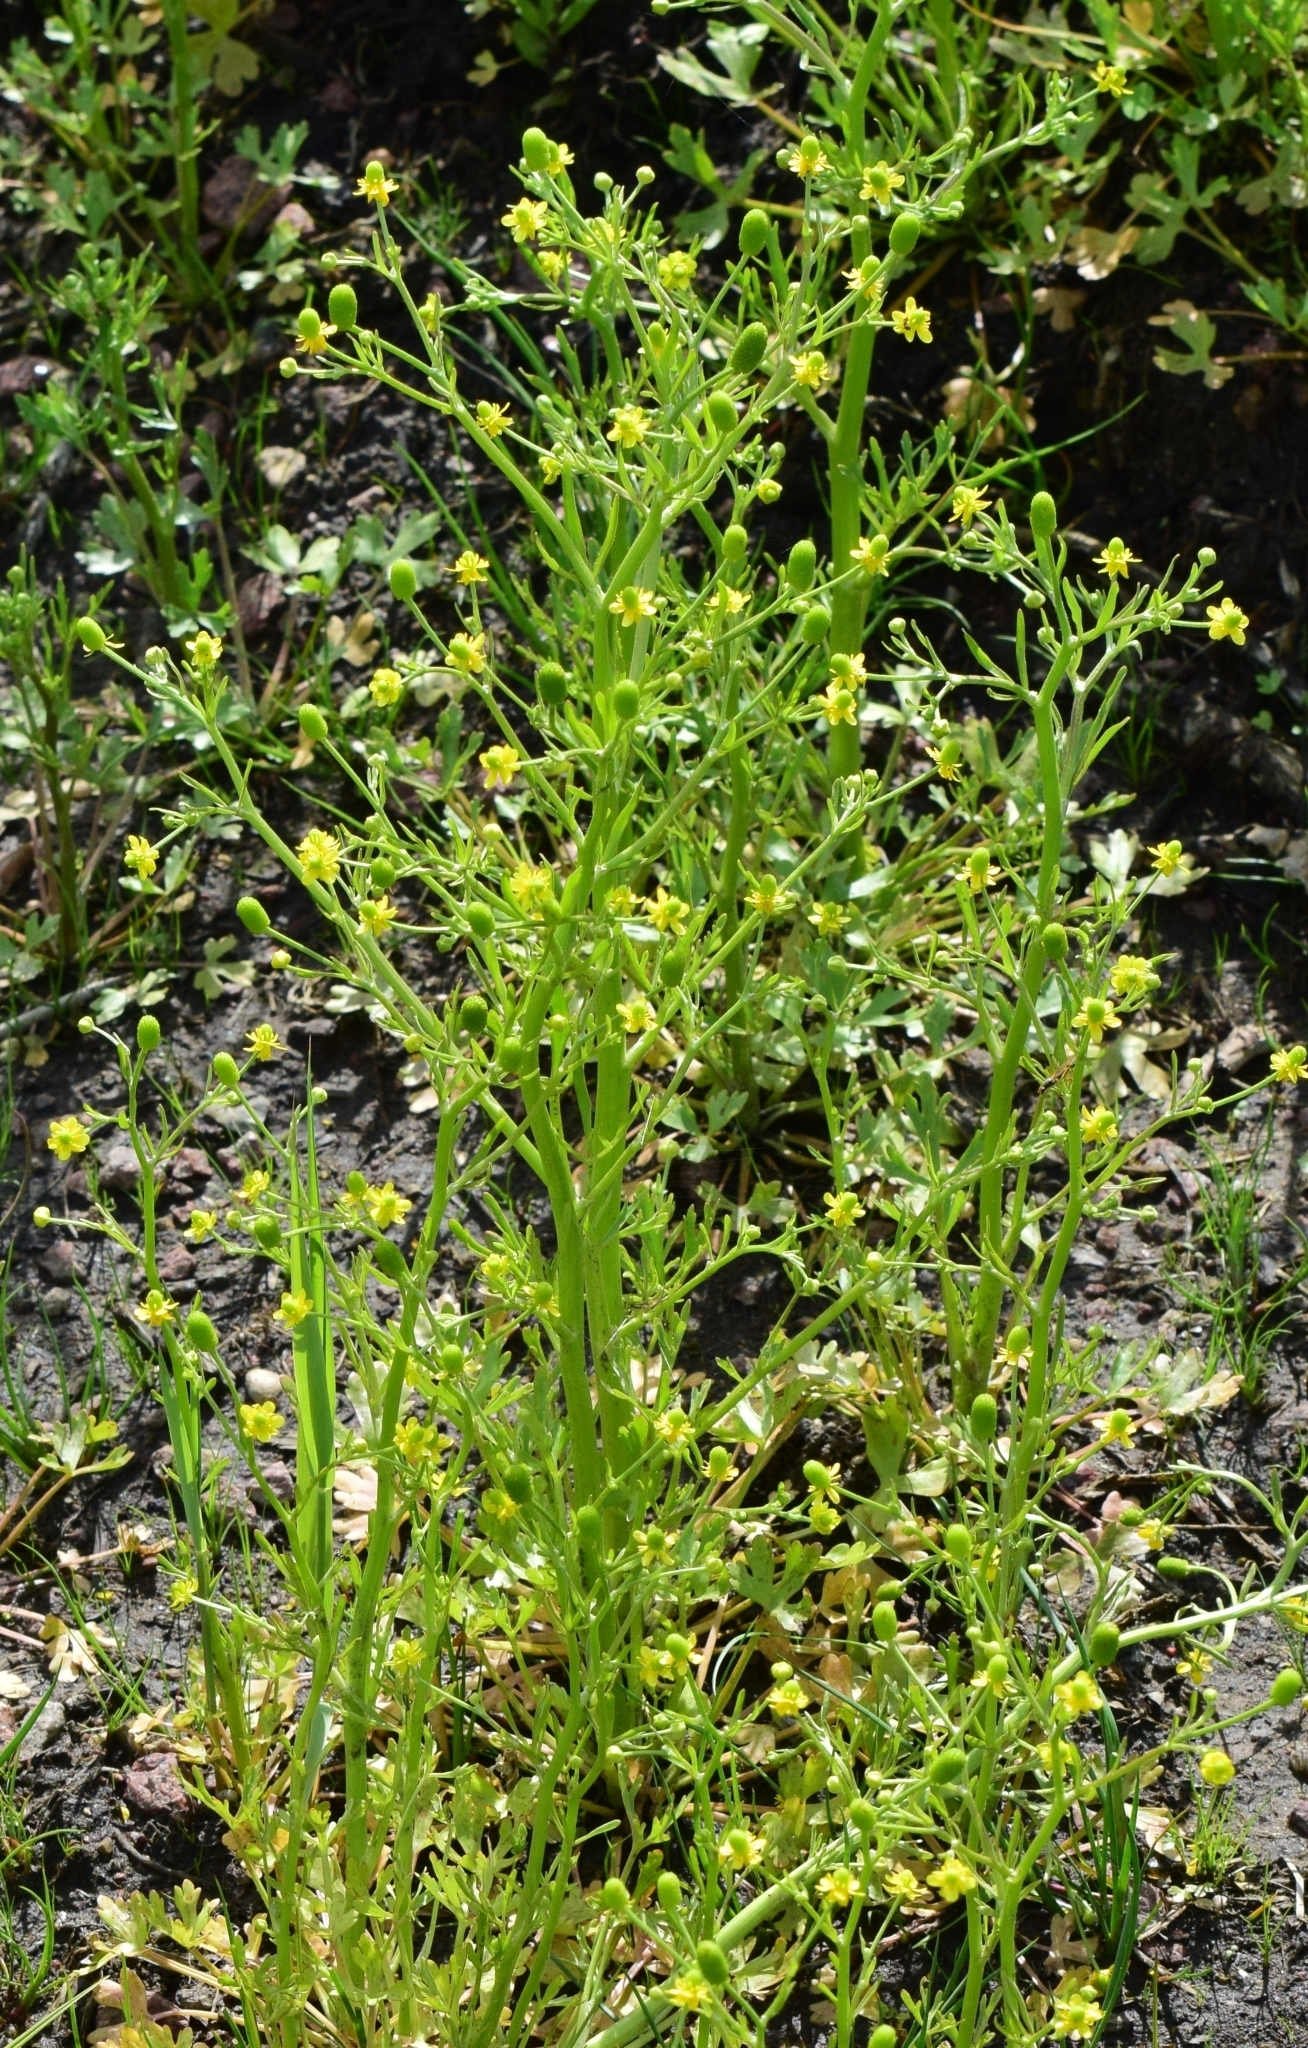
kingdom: Plantae
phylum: Tracheophyta
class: Magnoliopsida
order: Ranunculales
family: Ranunculaceae
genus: Ranunculus
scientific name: Ranunculus sceleratus
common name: Celery-leaved buttercup
